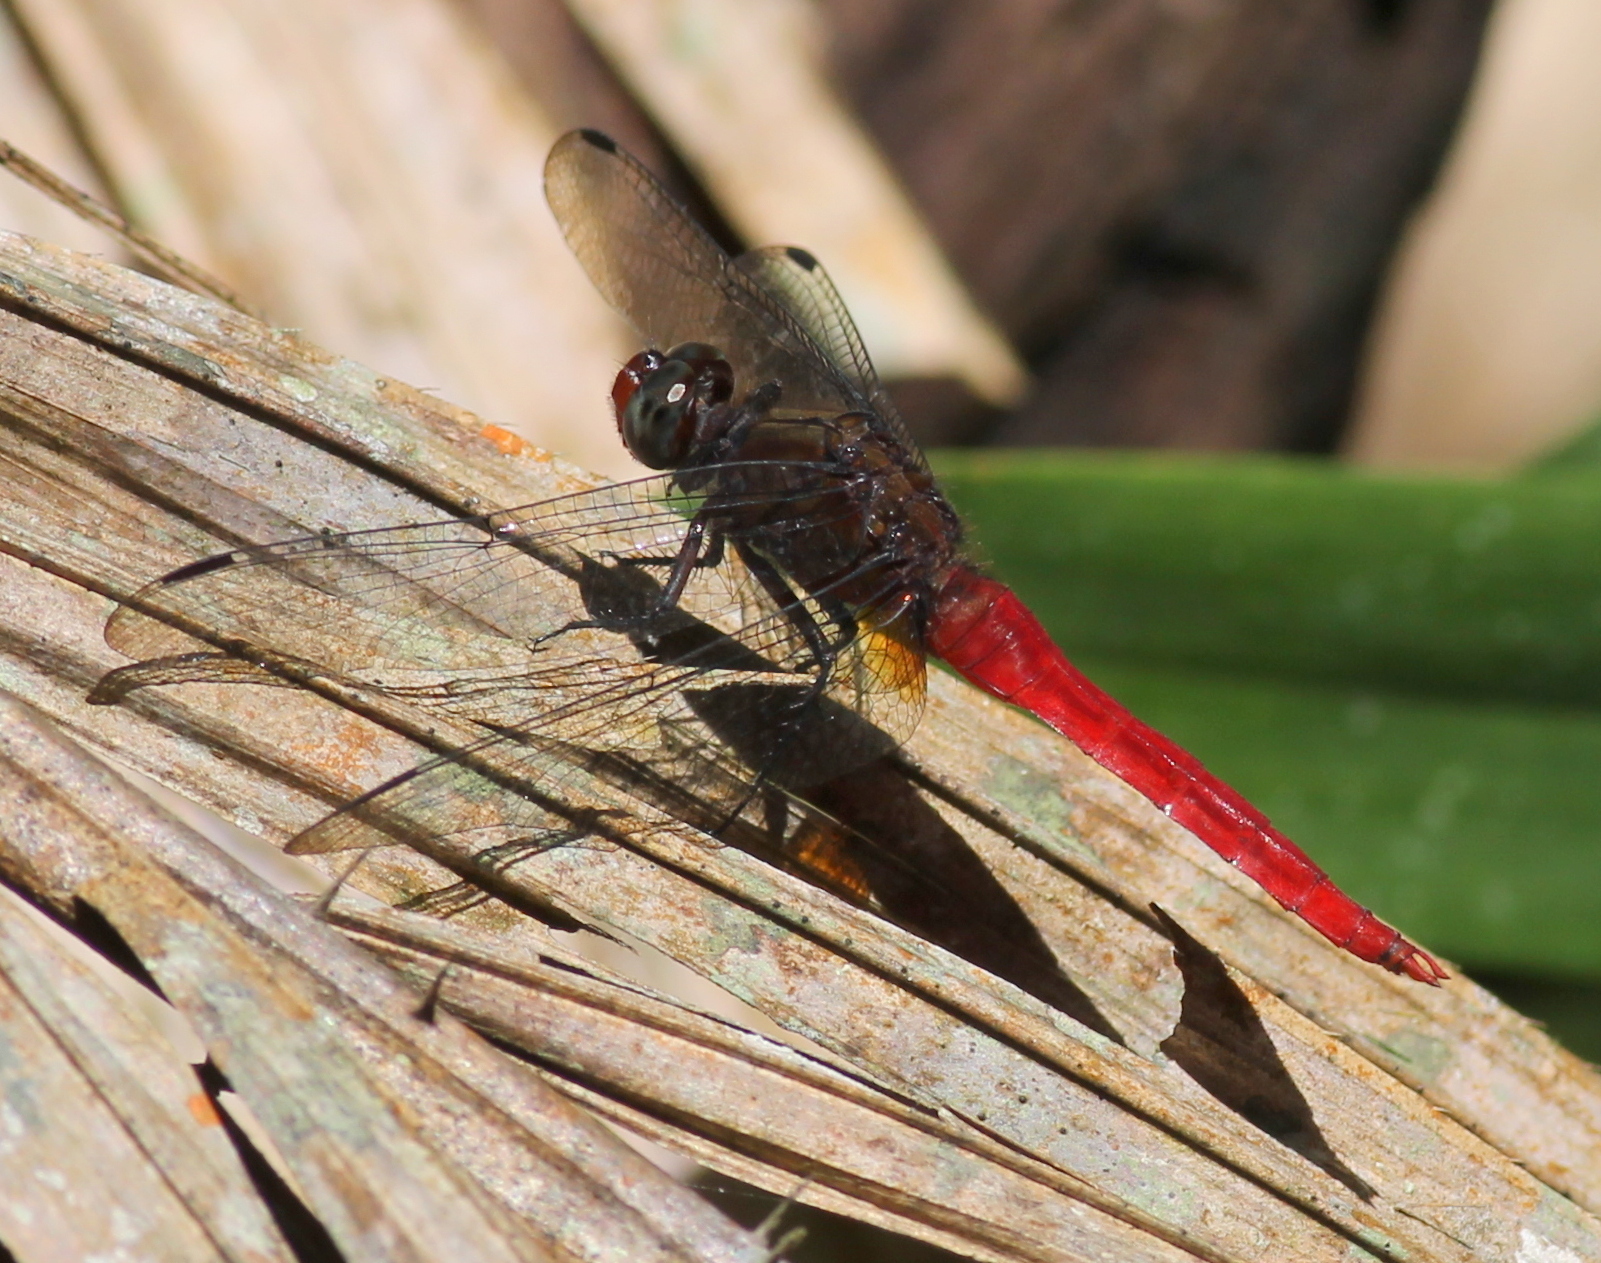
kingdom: Animalia
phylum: Arthropoda
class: Insecta
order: Odonata
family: Libellulidae
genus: Orthetrum
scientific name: Orthetrum chrysis
